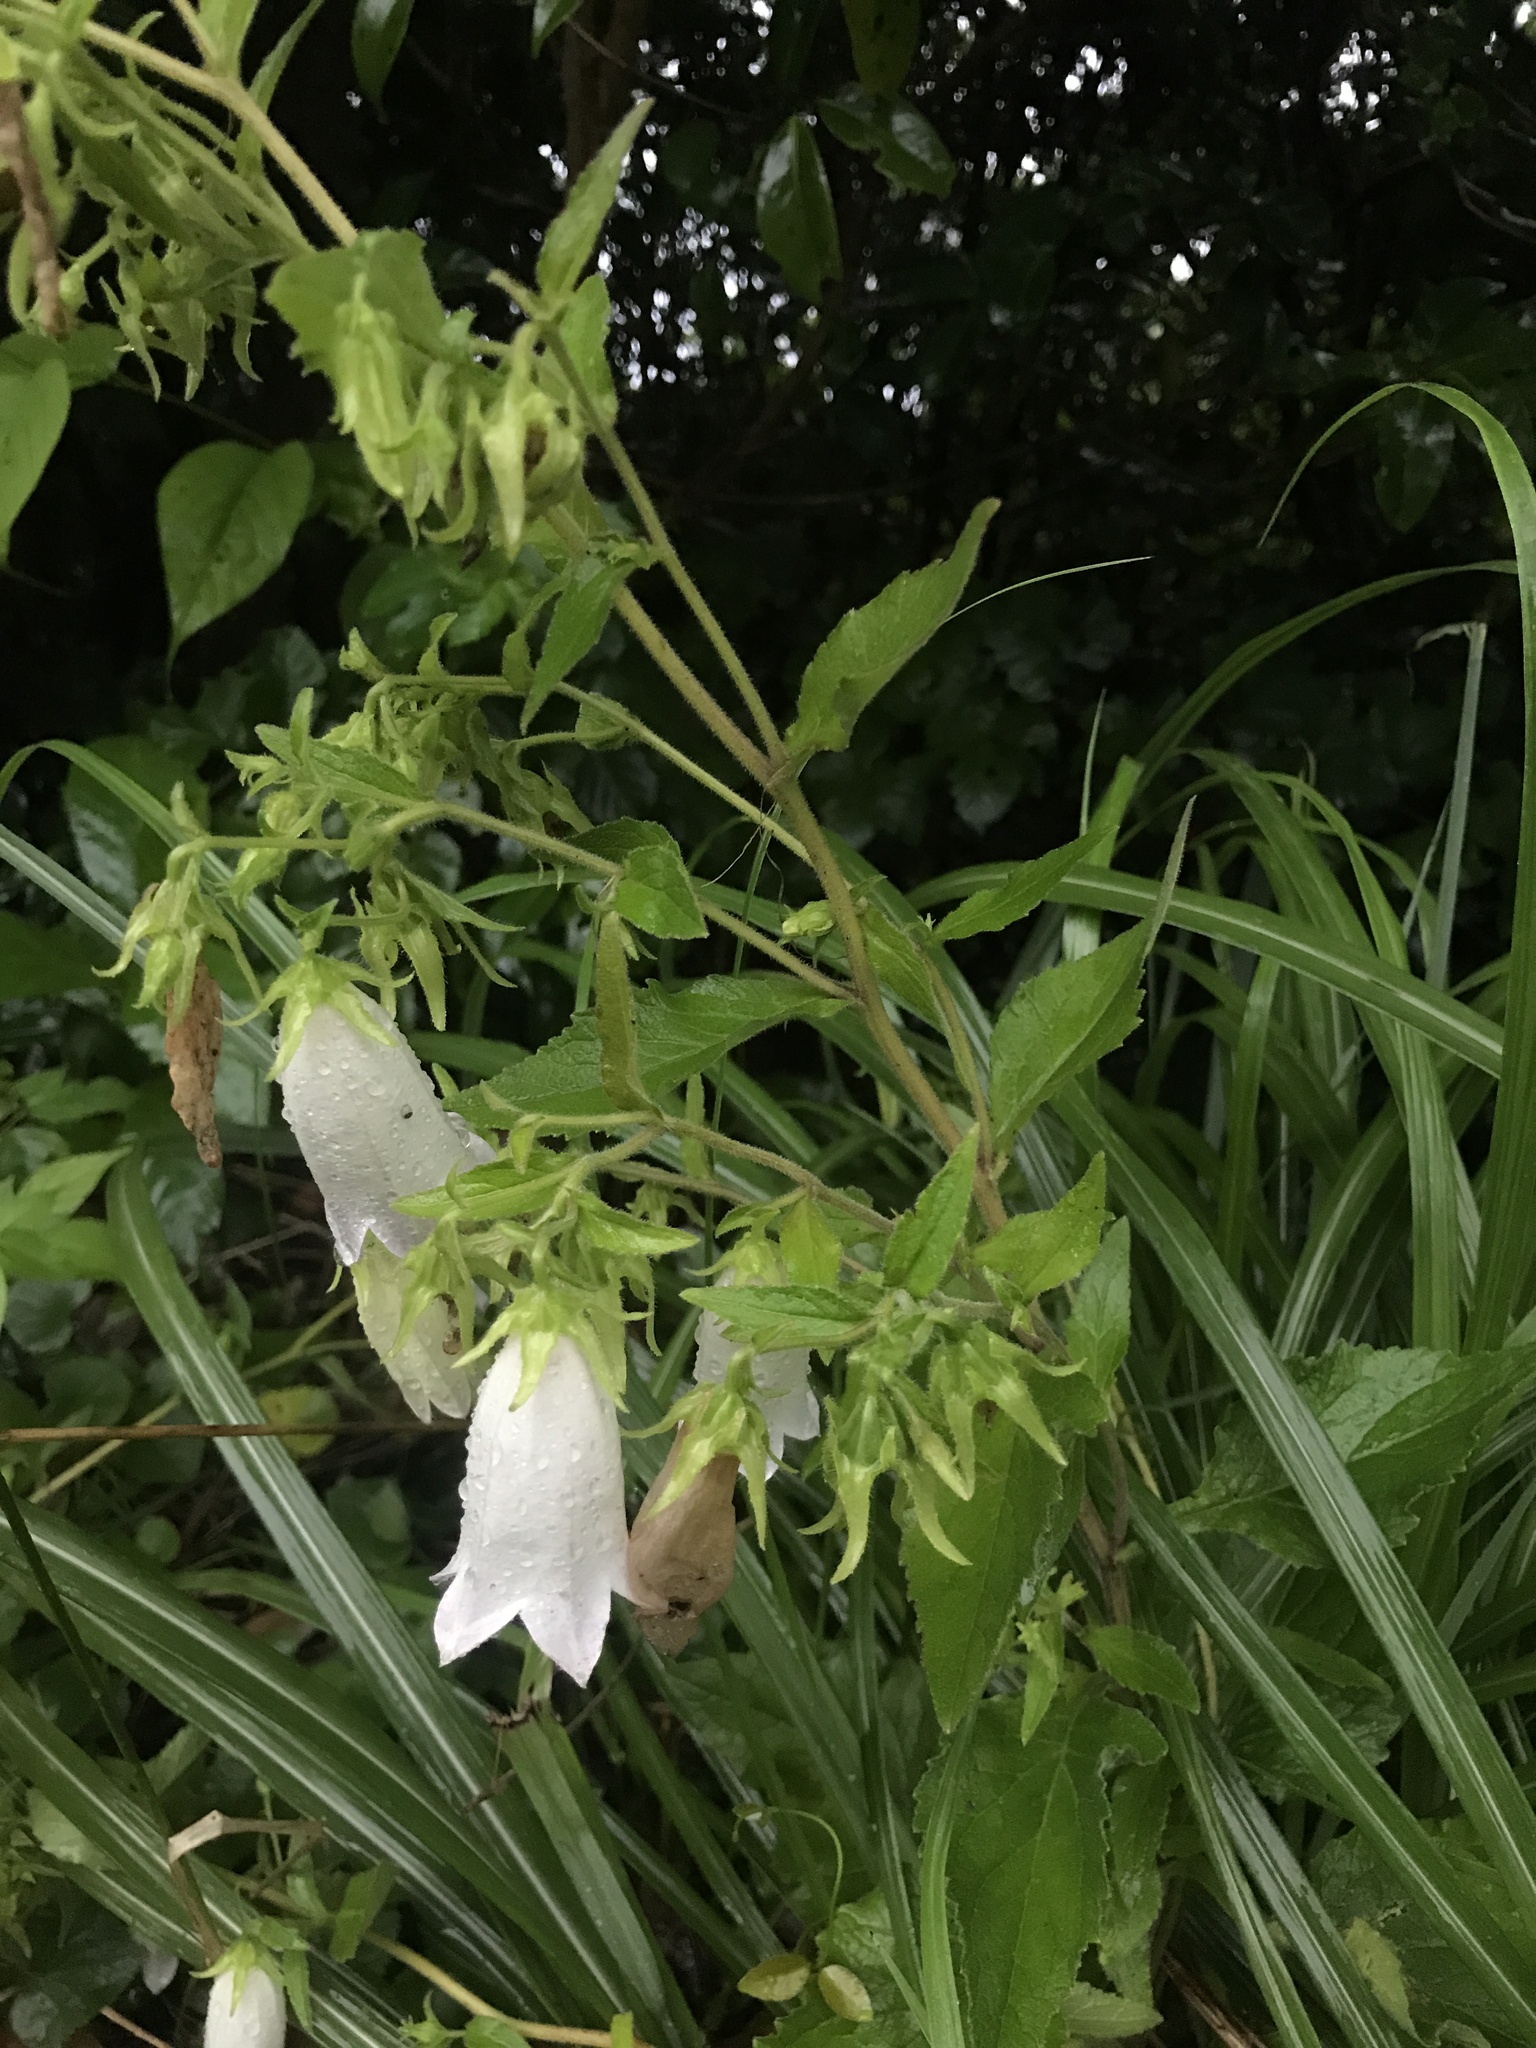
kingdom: Plantae
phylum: Tracheophyta
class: Magnoliopsida
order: Asterales
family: Campanulaceae
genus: Campanula
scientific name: Campanula punctata
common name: Spotted bellflower
